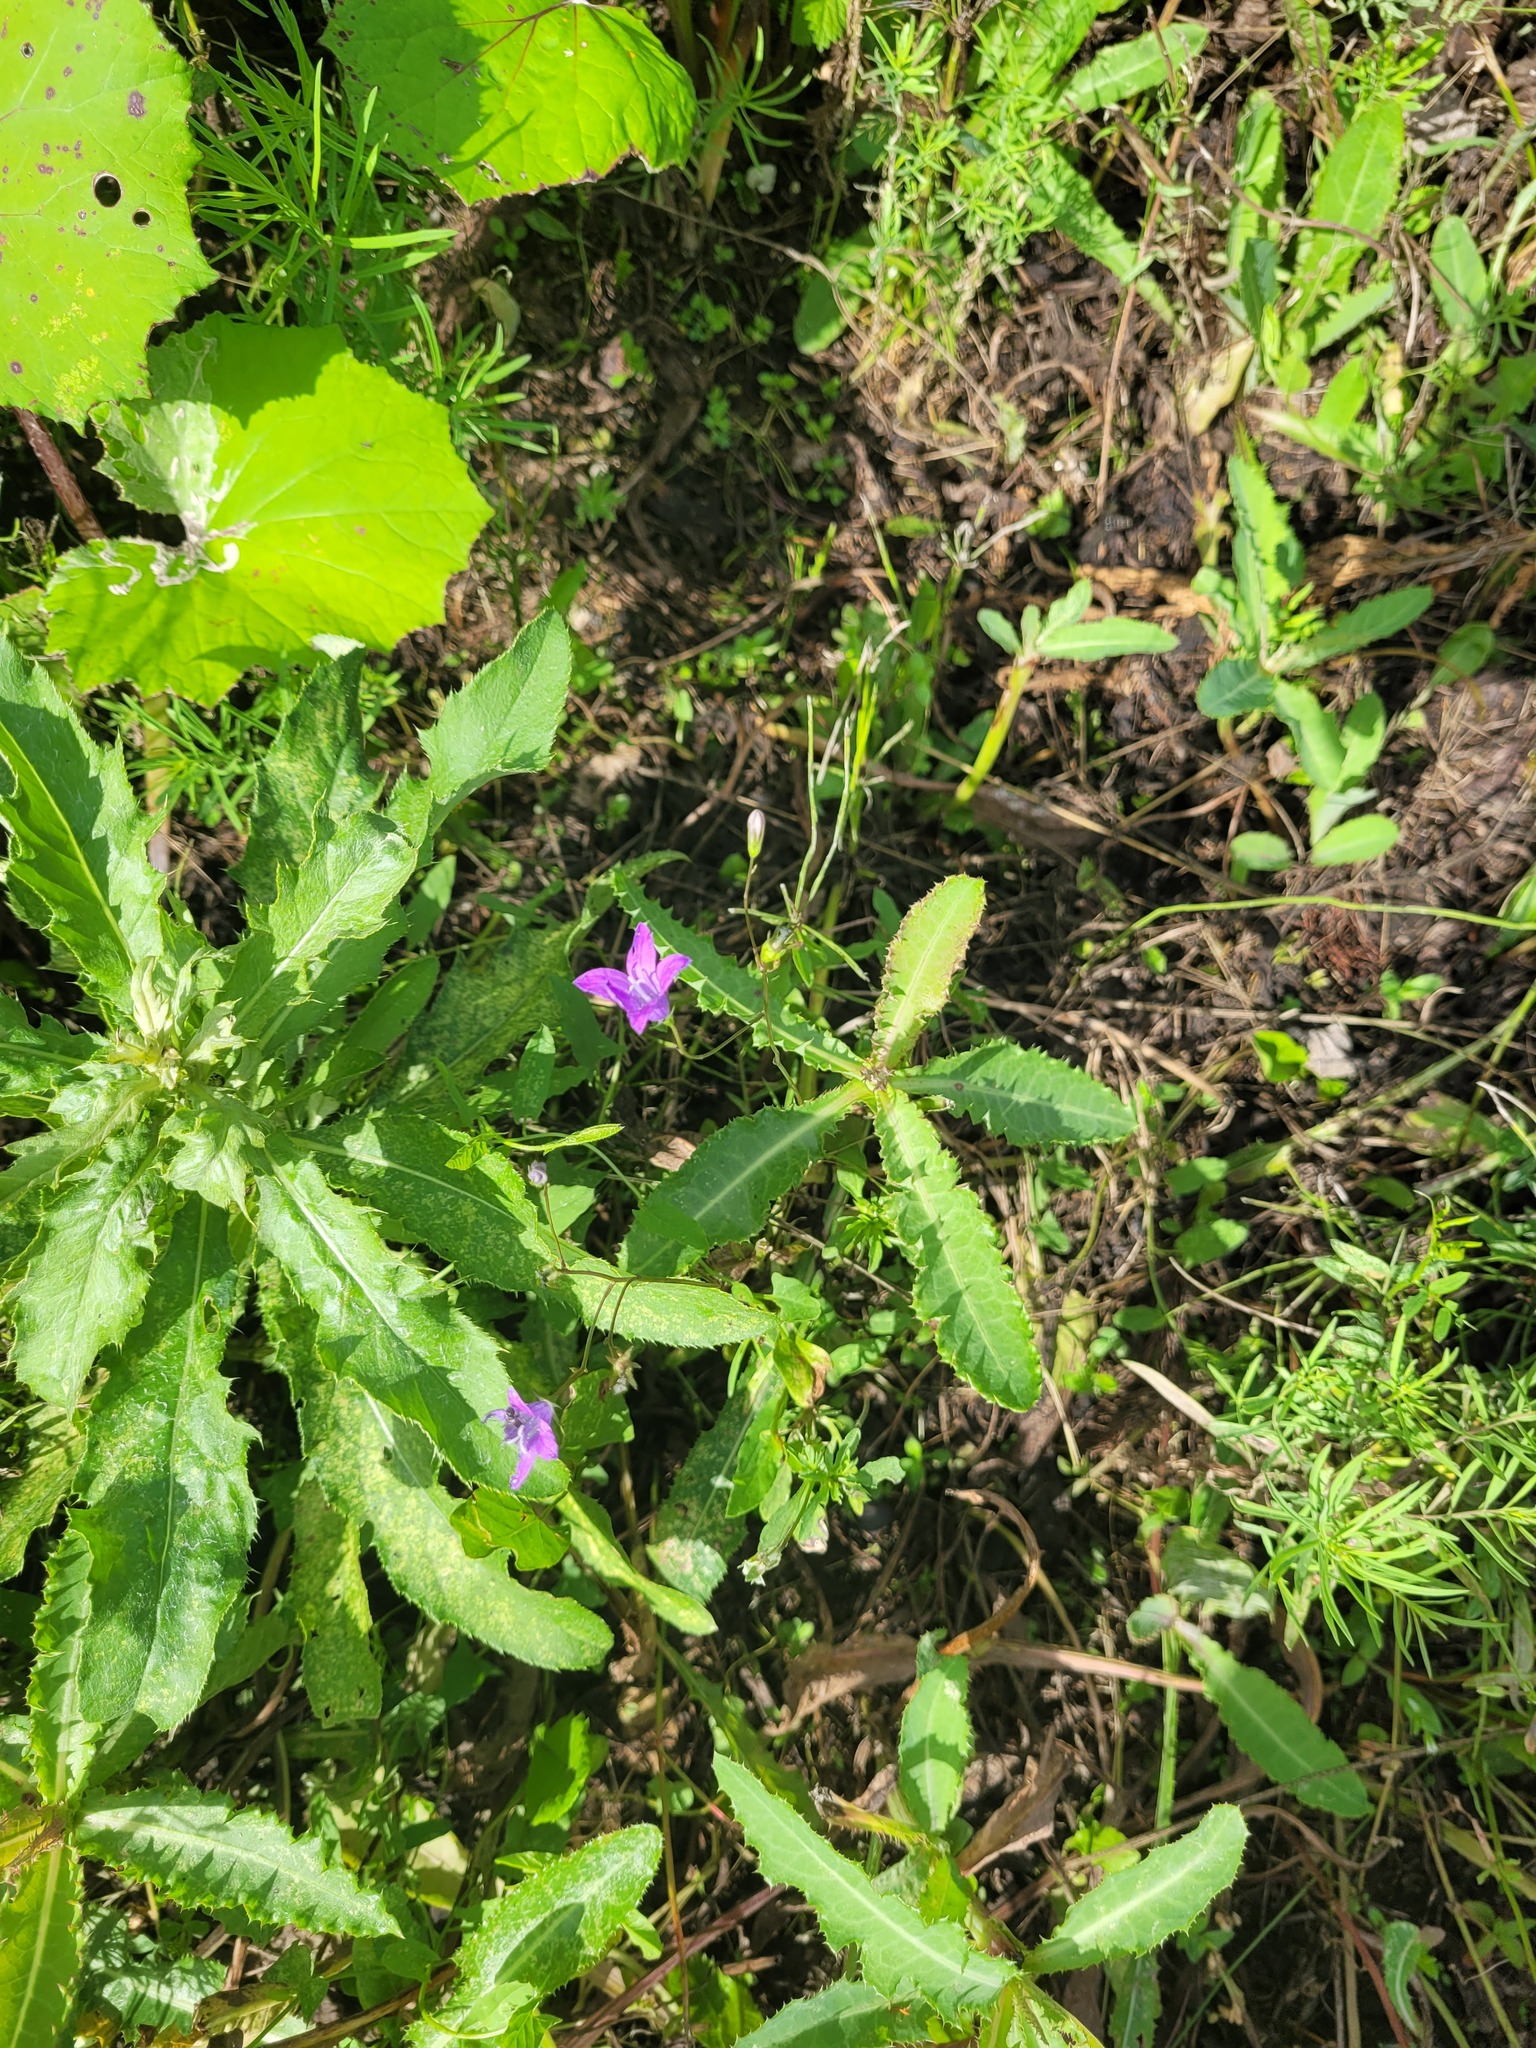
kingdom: Plantae
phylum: Tracheophyta
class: Magnoliopsida
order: Asterales
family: Campanulaceae
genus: Campanula
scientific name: Campanula patula
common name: Spreading bellflower
